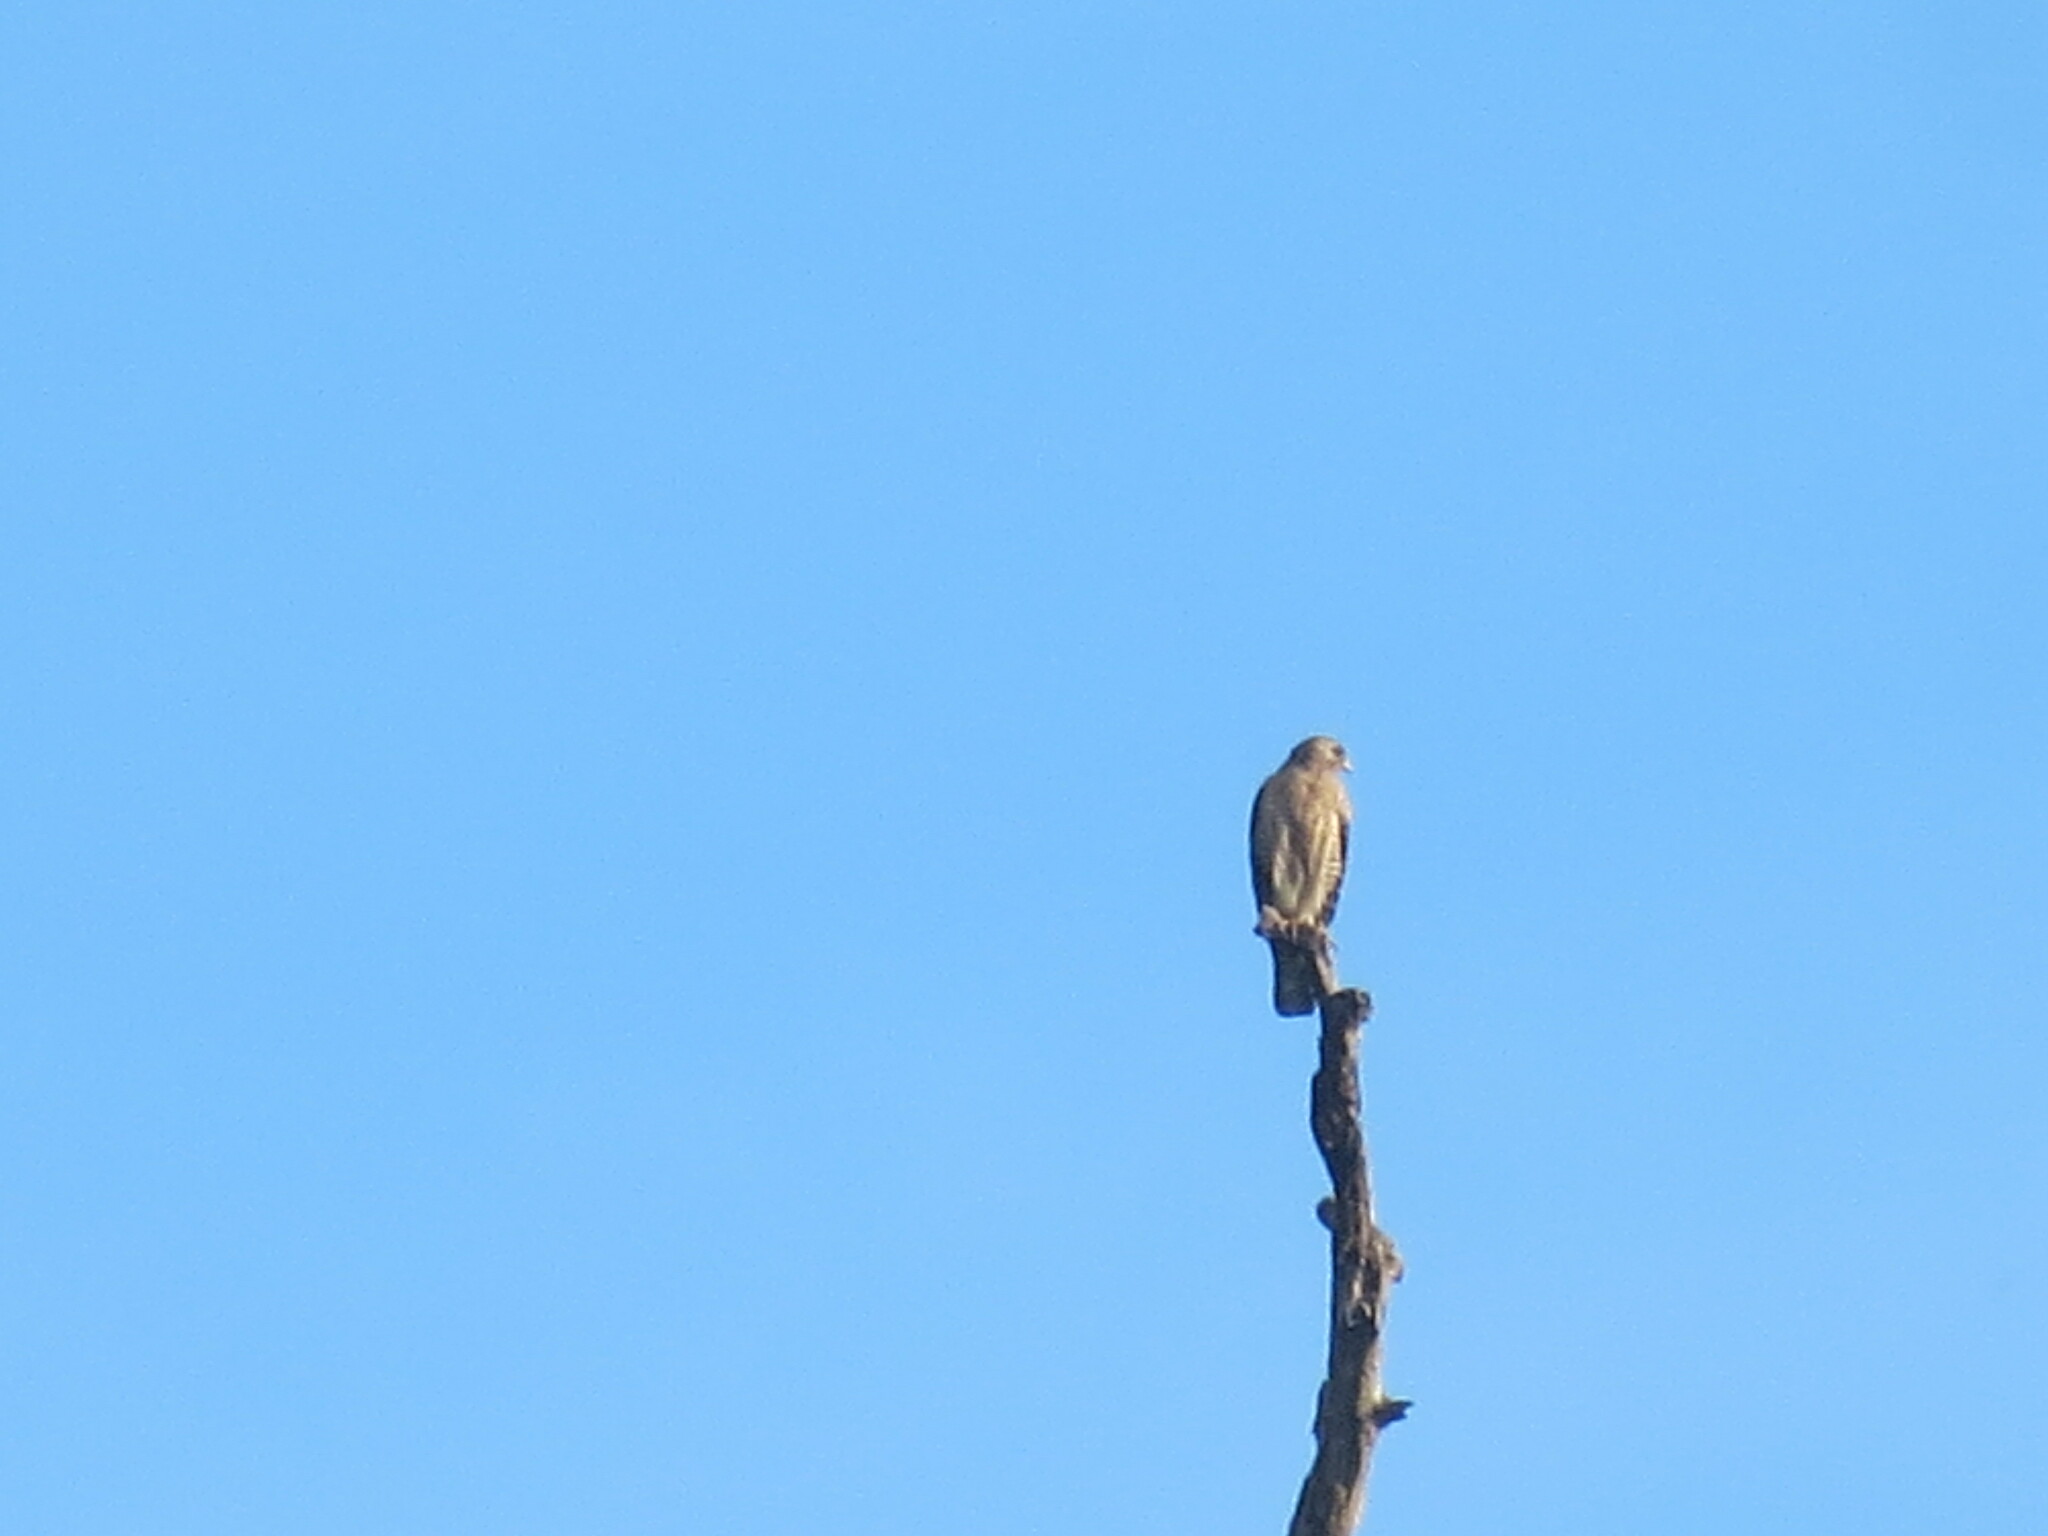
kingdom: Animalia
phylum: Chordata
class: Aves
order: Accipitriformes
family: Accipitridae
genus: Buteo
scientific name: Buteo lineatus
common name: Red-shouldered hawk
